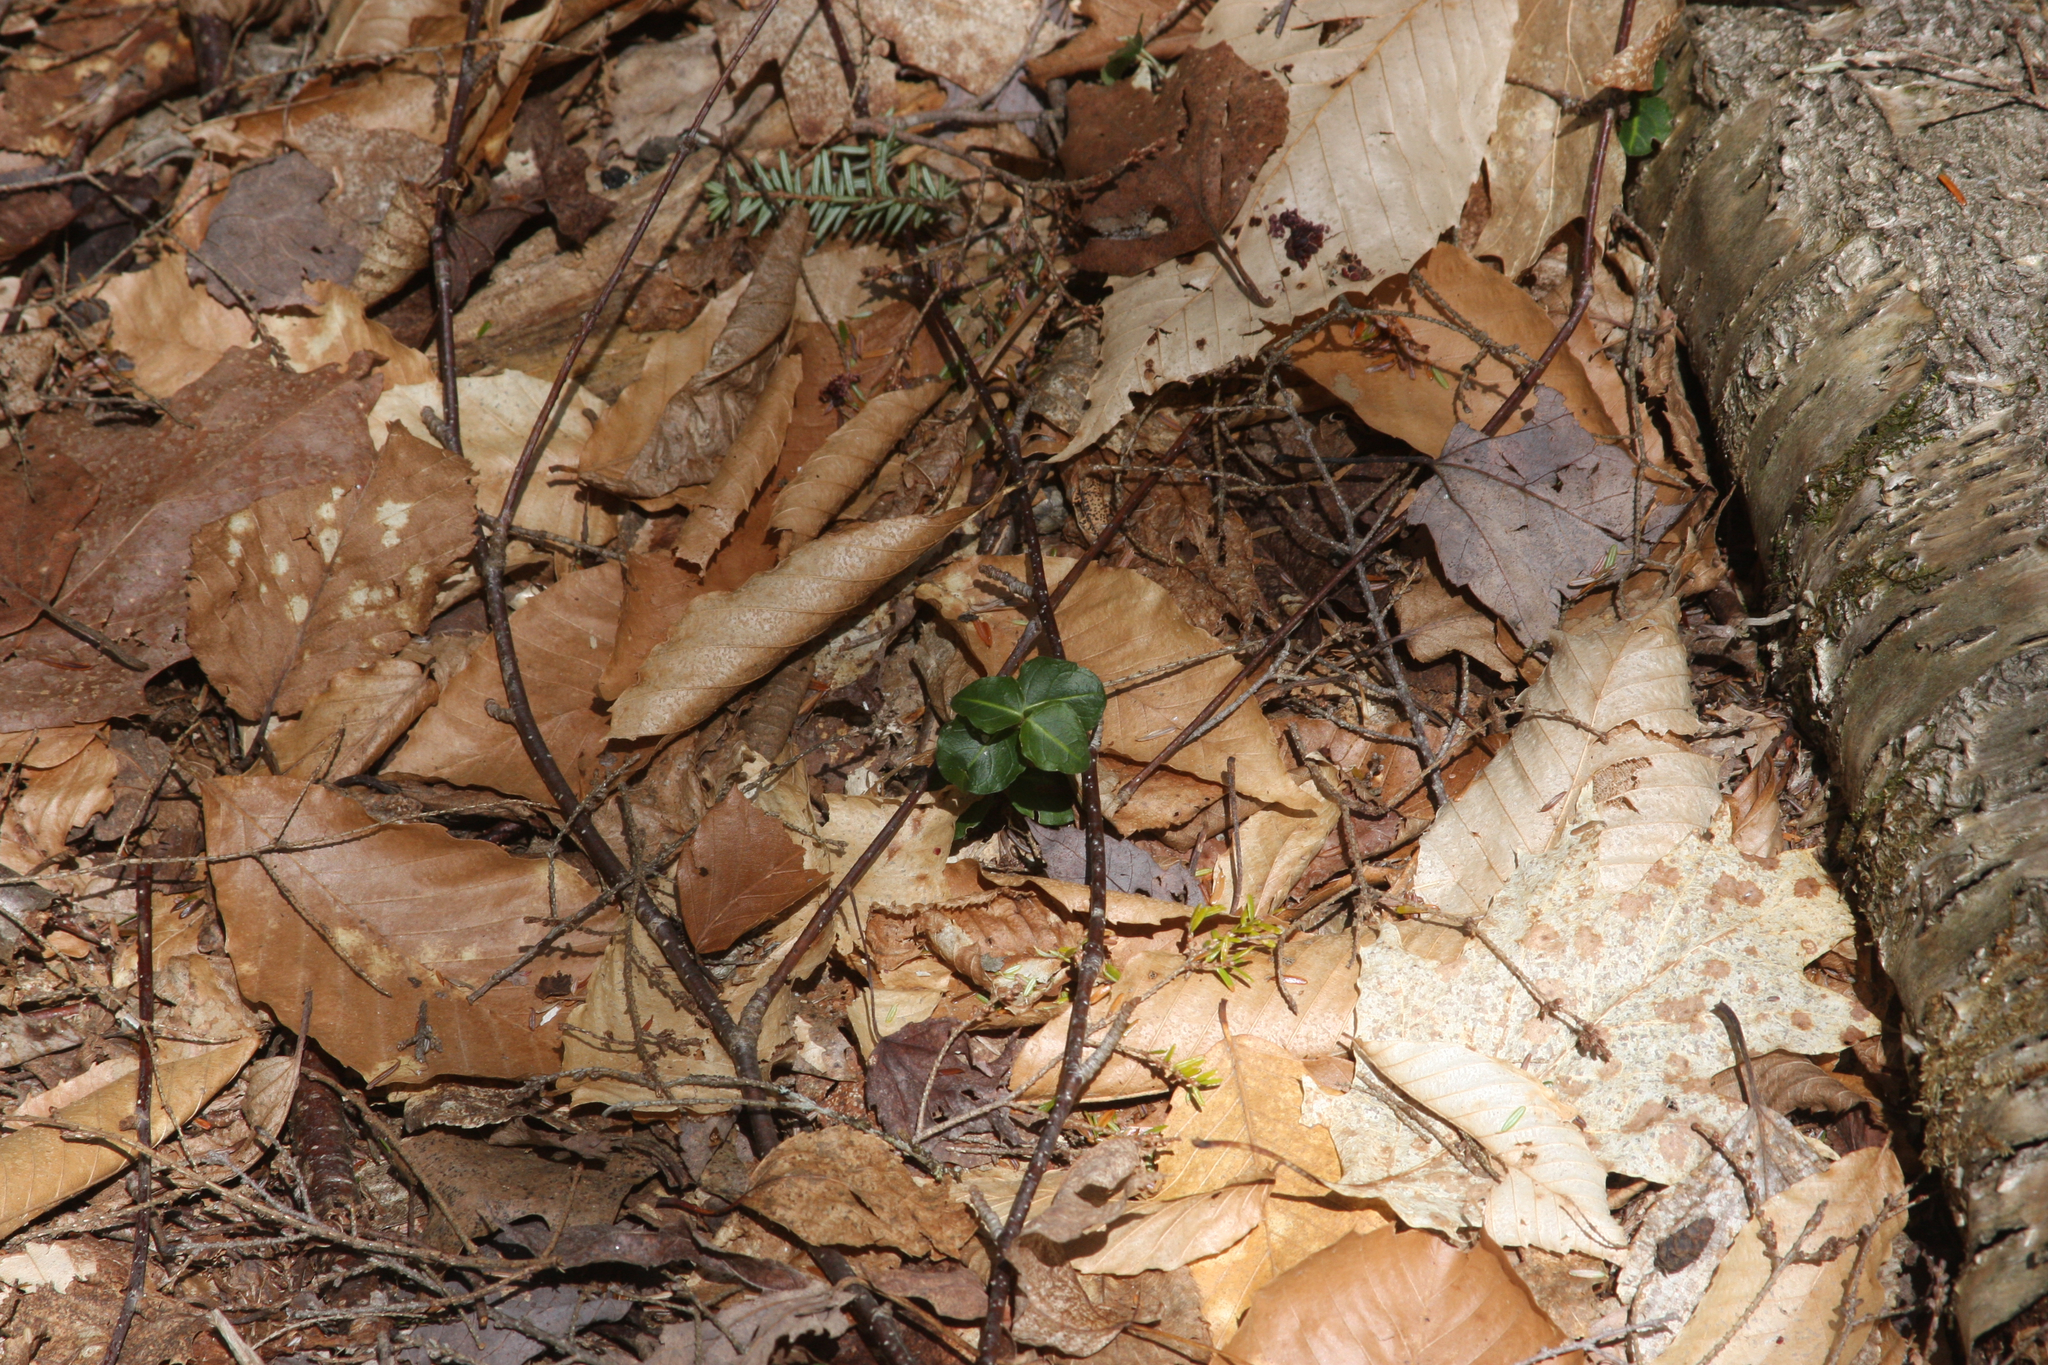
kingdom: Plantae
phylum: Tracheophyta
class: Magnoliopsida
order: Gentianales
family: Rubiaceae
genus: Mitchella
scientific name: Mitchella repens
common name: Partridge-berry
